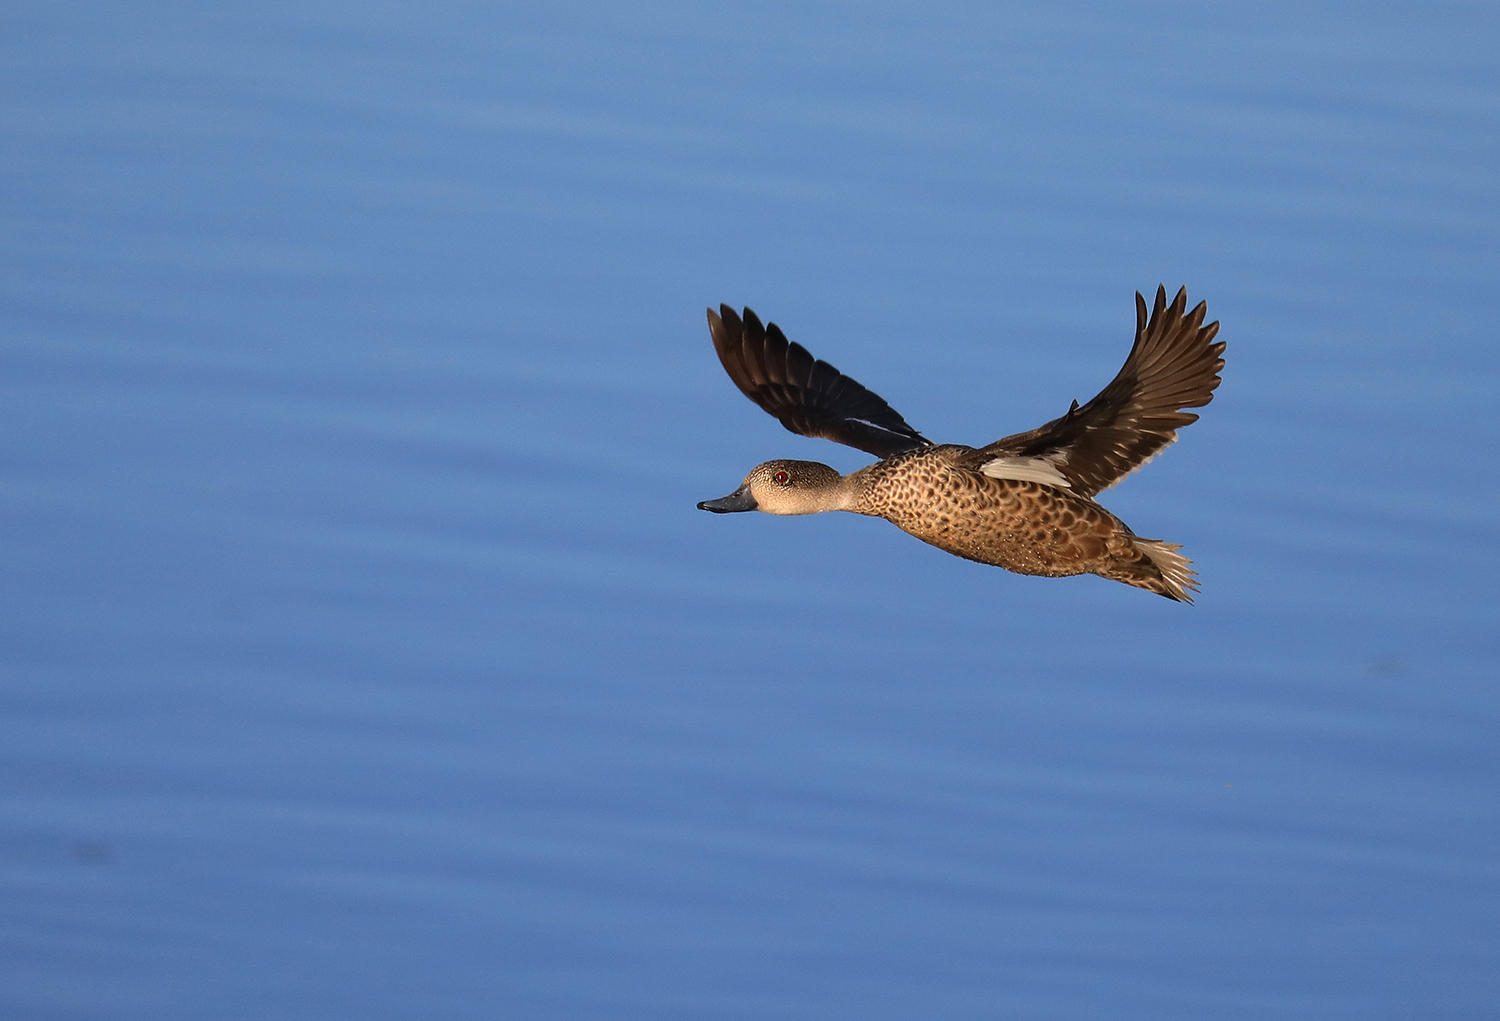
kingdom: Animalia
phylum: Chordata
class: Aves
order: Anseriformes
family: Anatidae
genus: Anas
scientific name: Anas gracilis
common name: Grey teal
